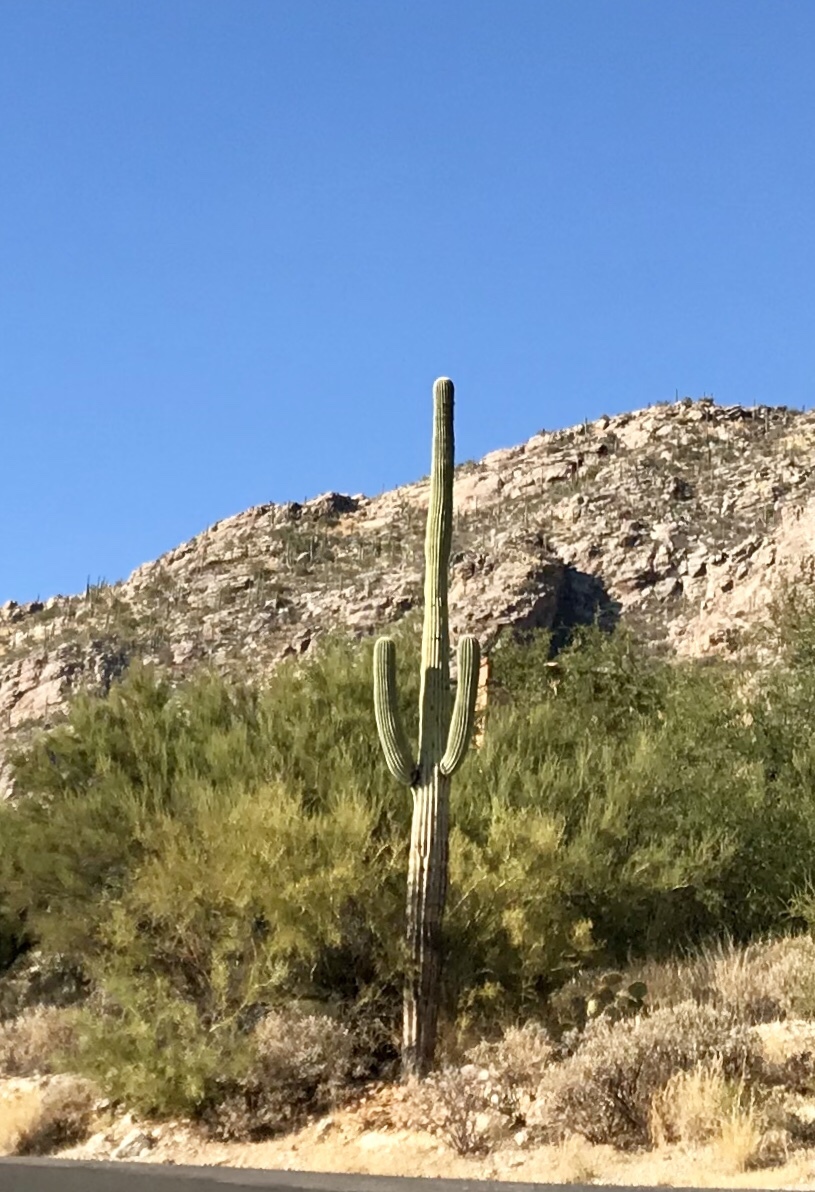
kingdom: Plantae
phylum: Tracheophyta
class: Magnoliopsida
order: Caryophyllales
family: Cactaceae
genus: Carnegiea
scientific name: Carnegiea gigantea
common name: Saguaro
